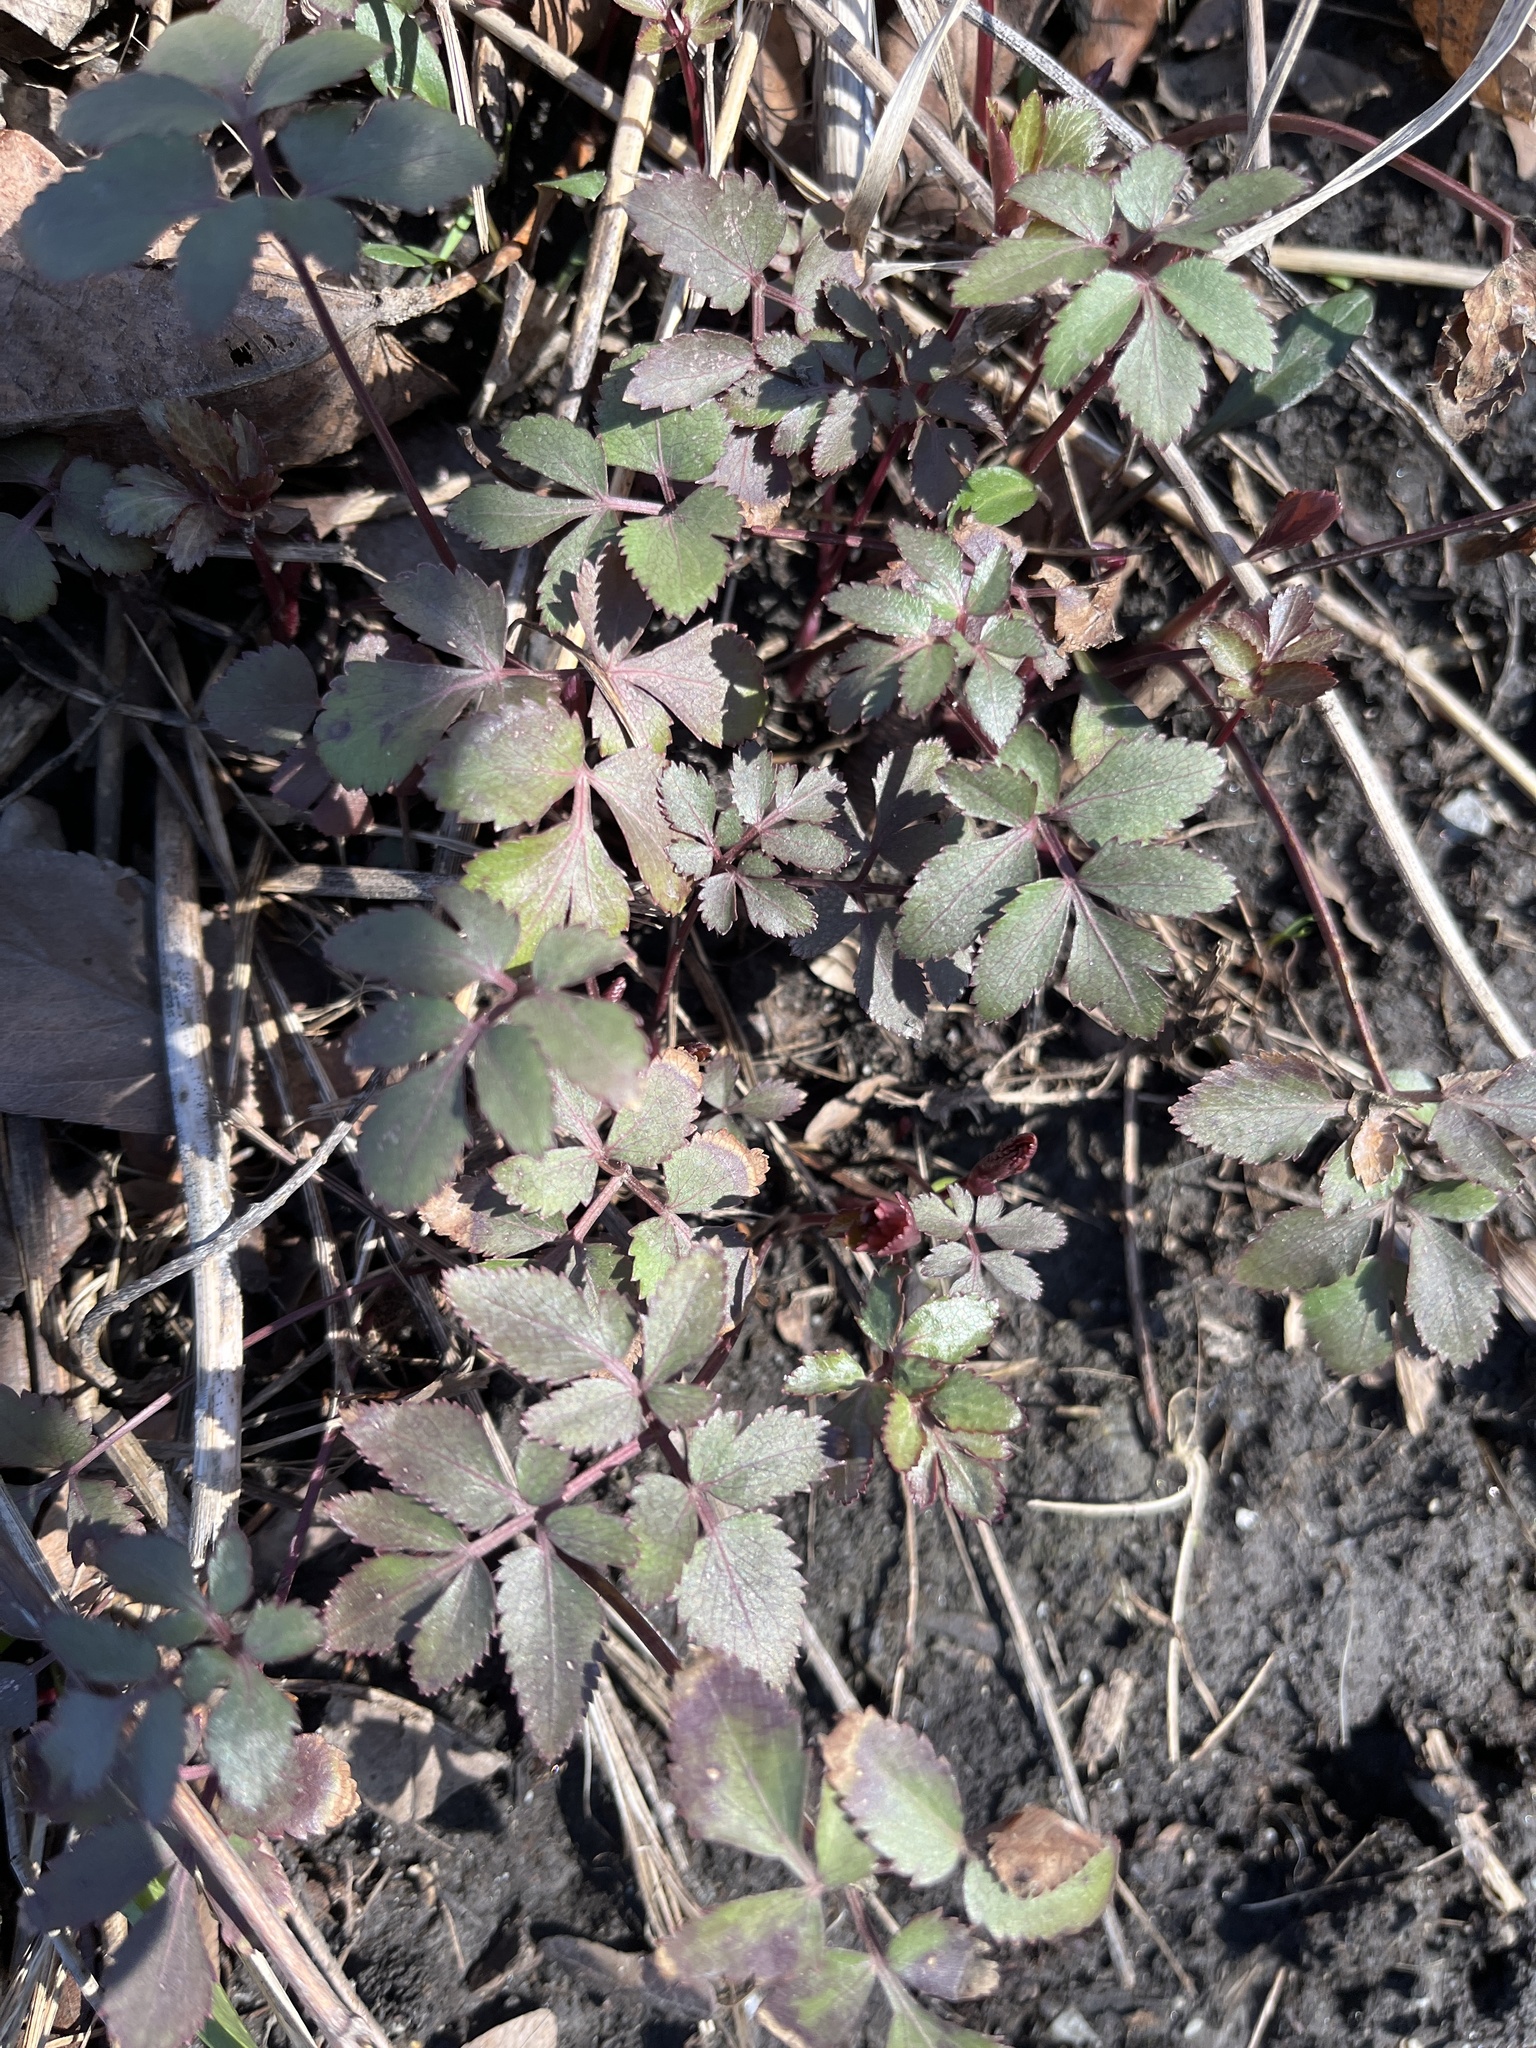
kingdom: Plantae
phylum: Tracheophyta
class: Magnoliopsida
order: Apiales
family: Apiaceae
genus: Zizia
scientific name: Zizia aurea
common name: Golden alexanders
